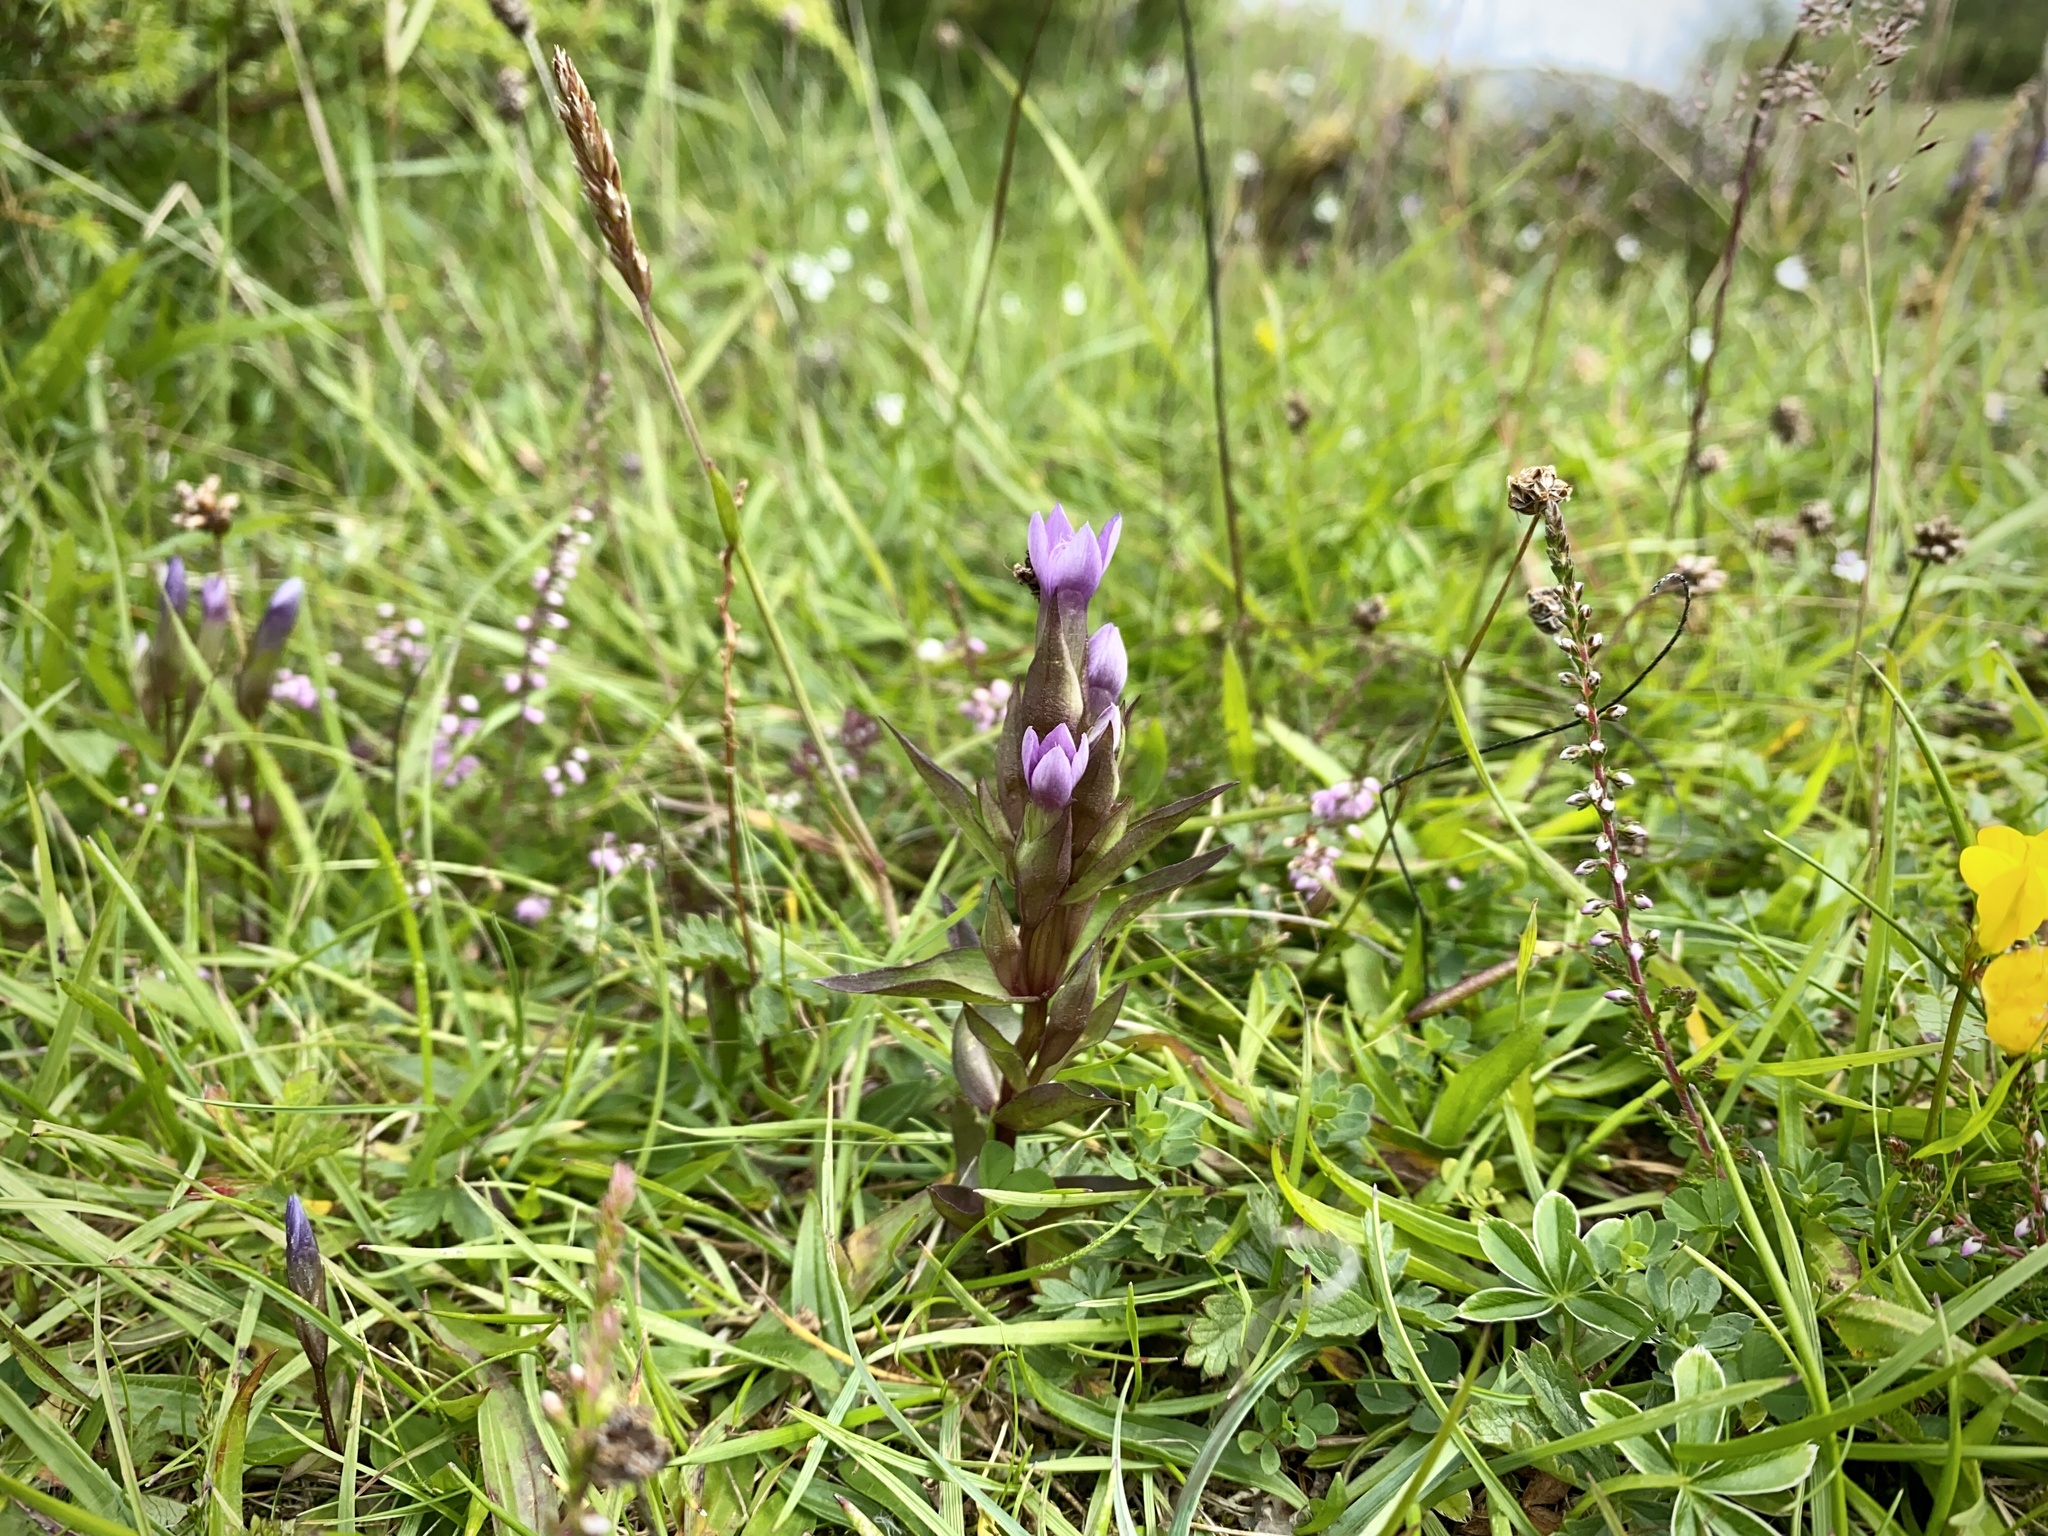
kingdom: Plantae
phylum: Tracheophyta
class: Magnoliopsida
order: Gentianales
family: Gentianaceae
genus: Gentianella
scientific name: Gentianella campestris
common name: Field gentian
